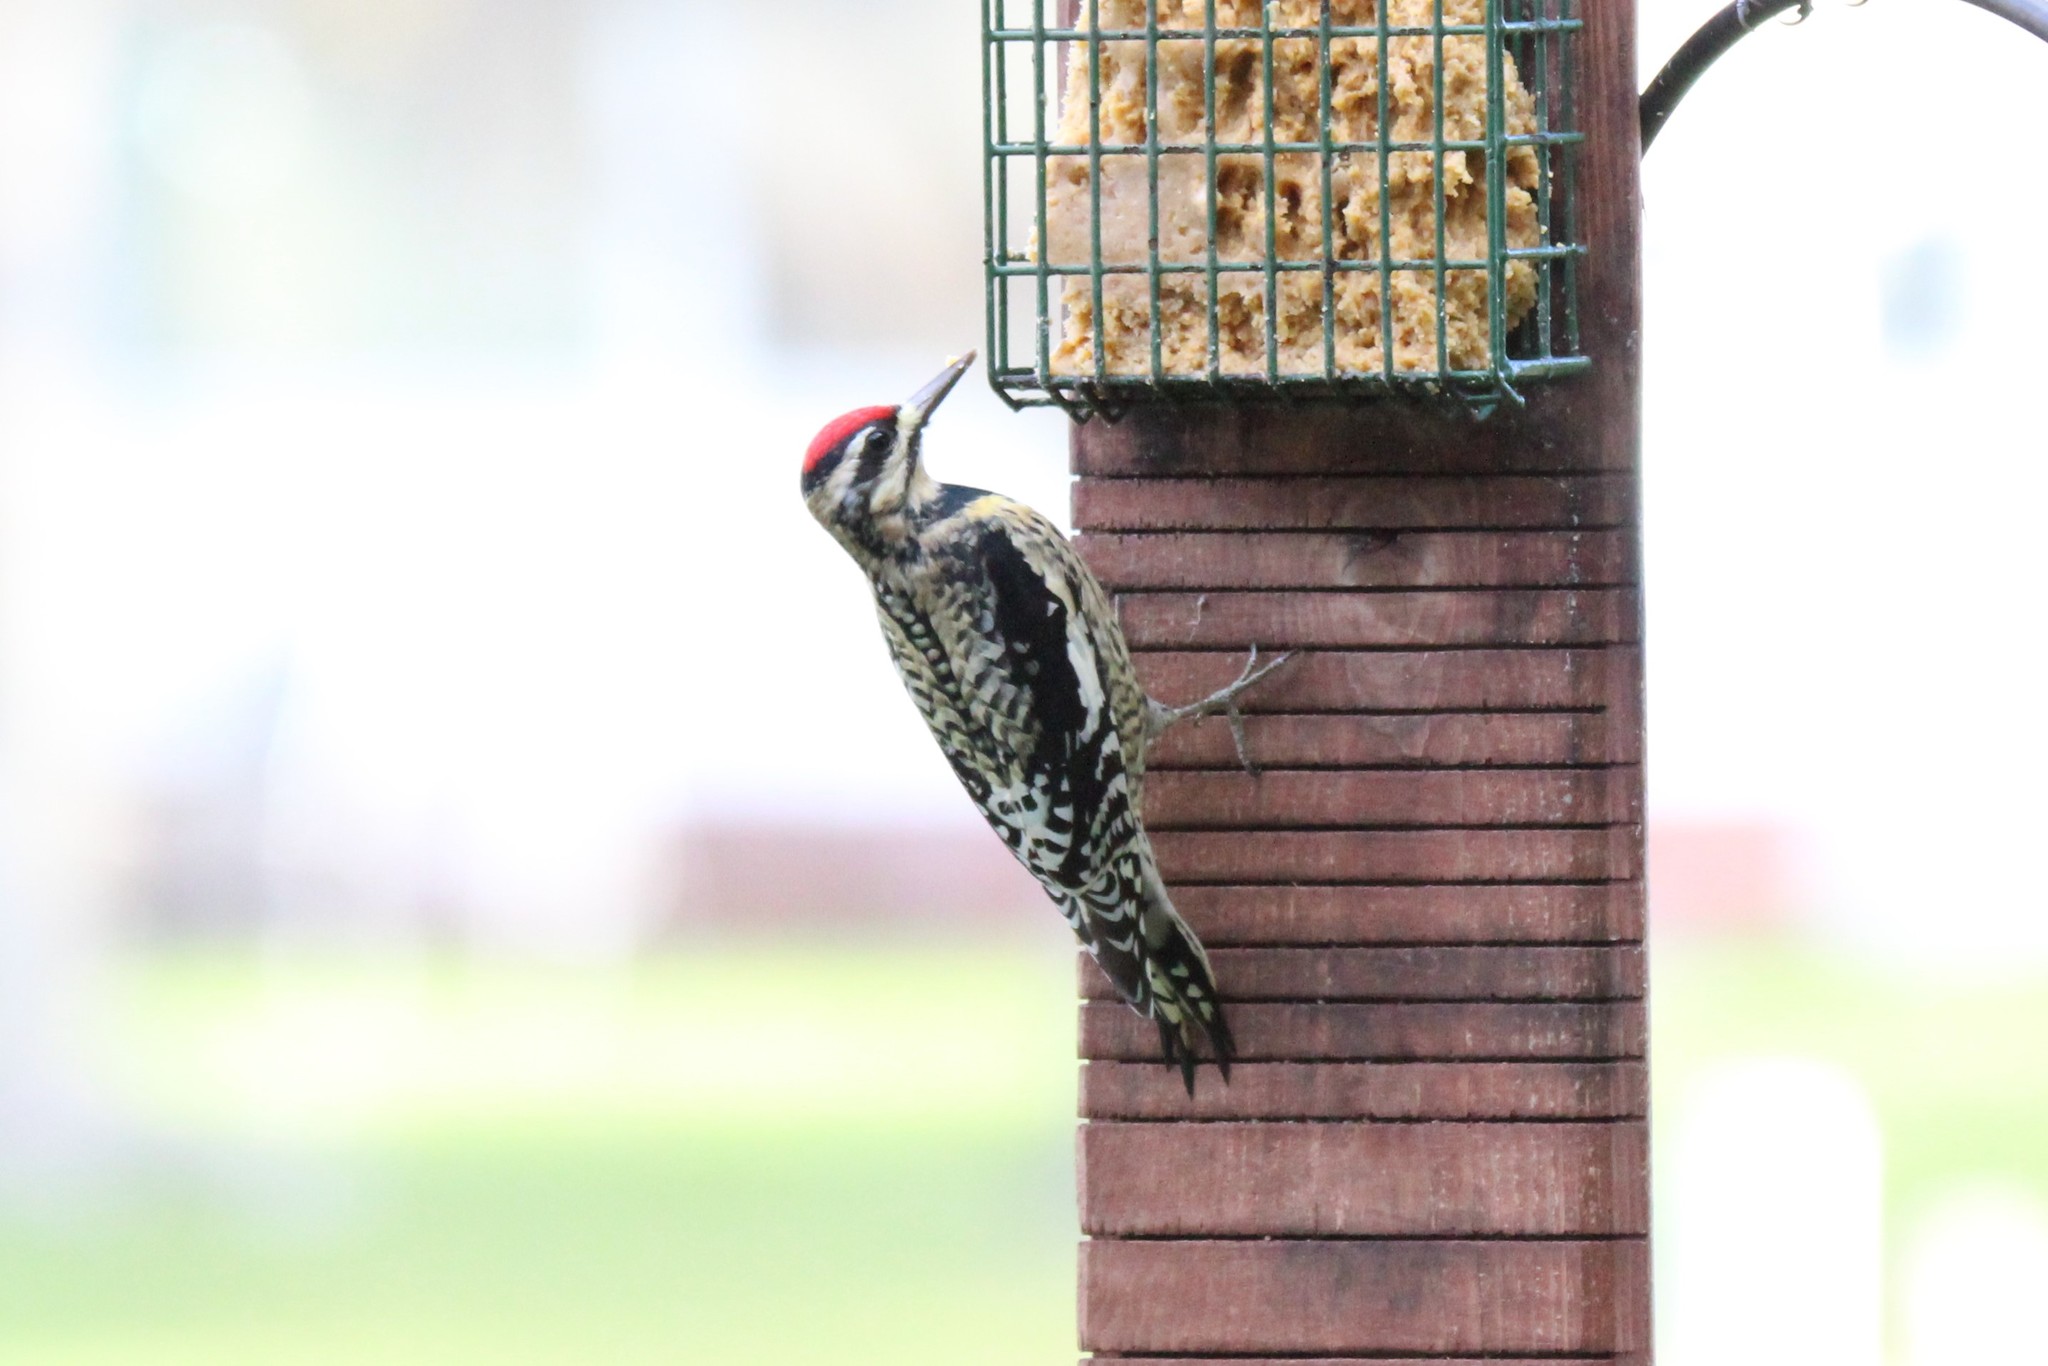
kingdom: Animalia
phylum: Chordata
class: Aves
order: Piciformes
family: Picidae
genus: Sphyrapicus
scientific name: Sphyrapicus varius
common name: Yellow-bellied sapsucker
